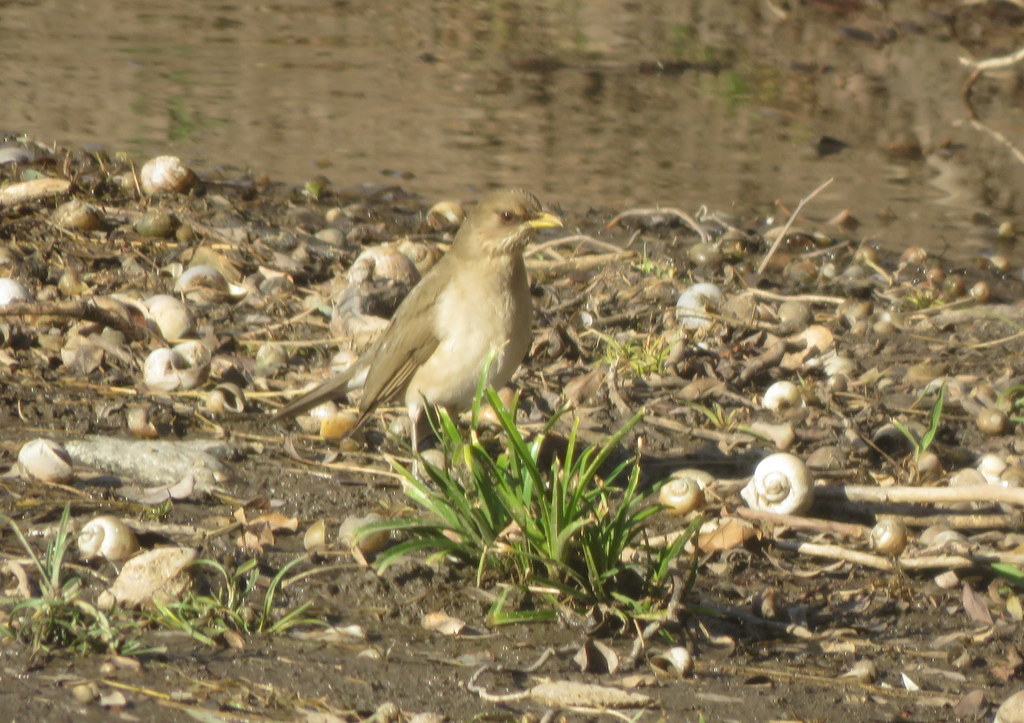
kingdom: Animalia
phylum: Chordata
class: Aves
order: Passeriformes
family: Turdidae
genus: Turdus
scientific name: Turdus amaurochalinus
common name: Creamy-bellied thrush
